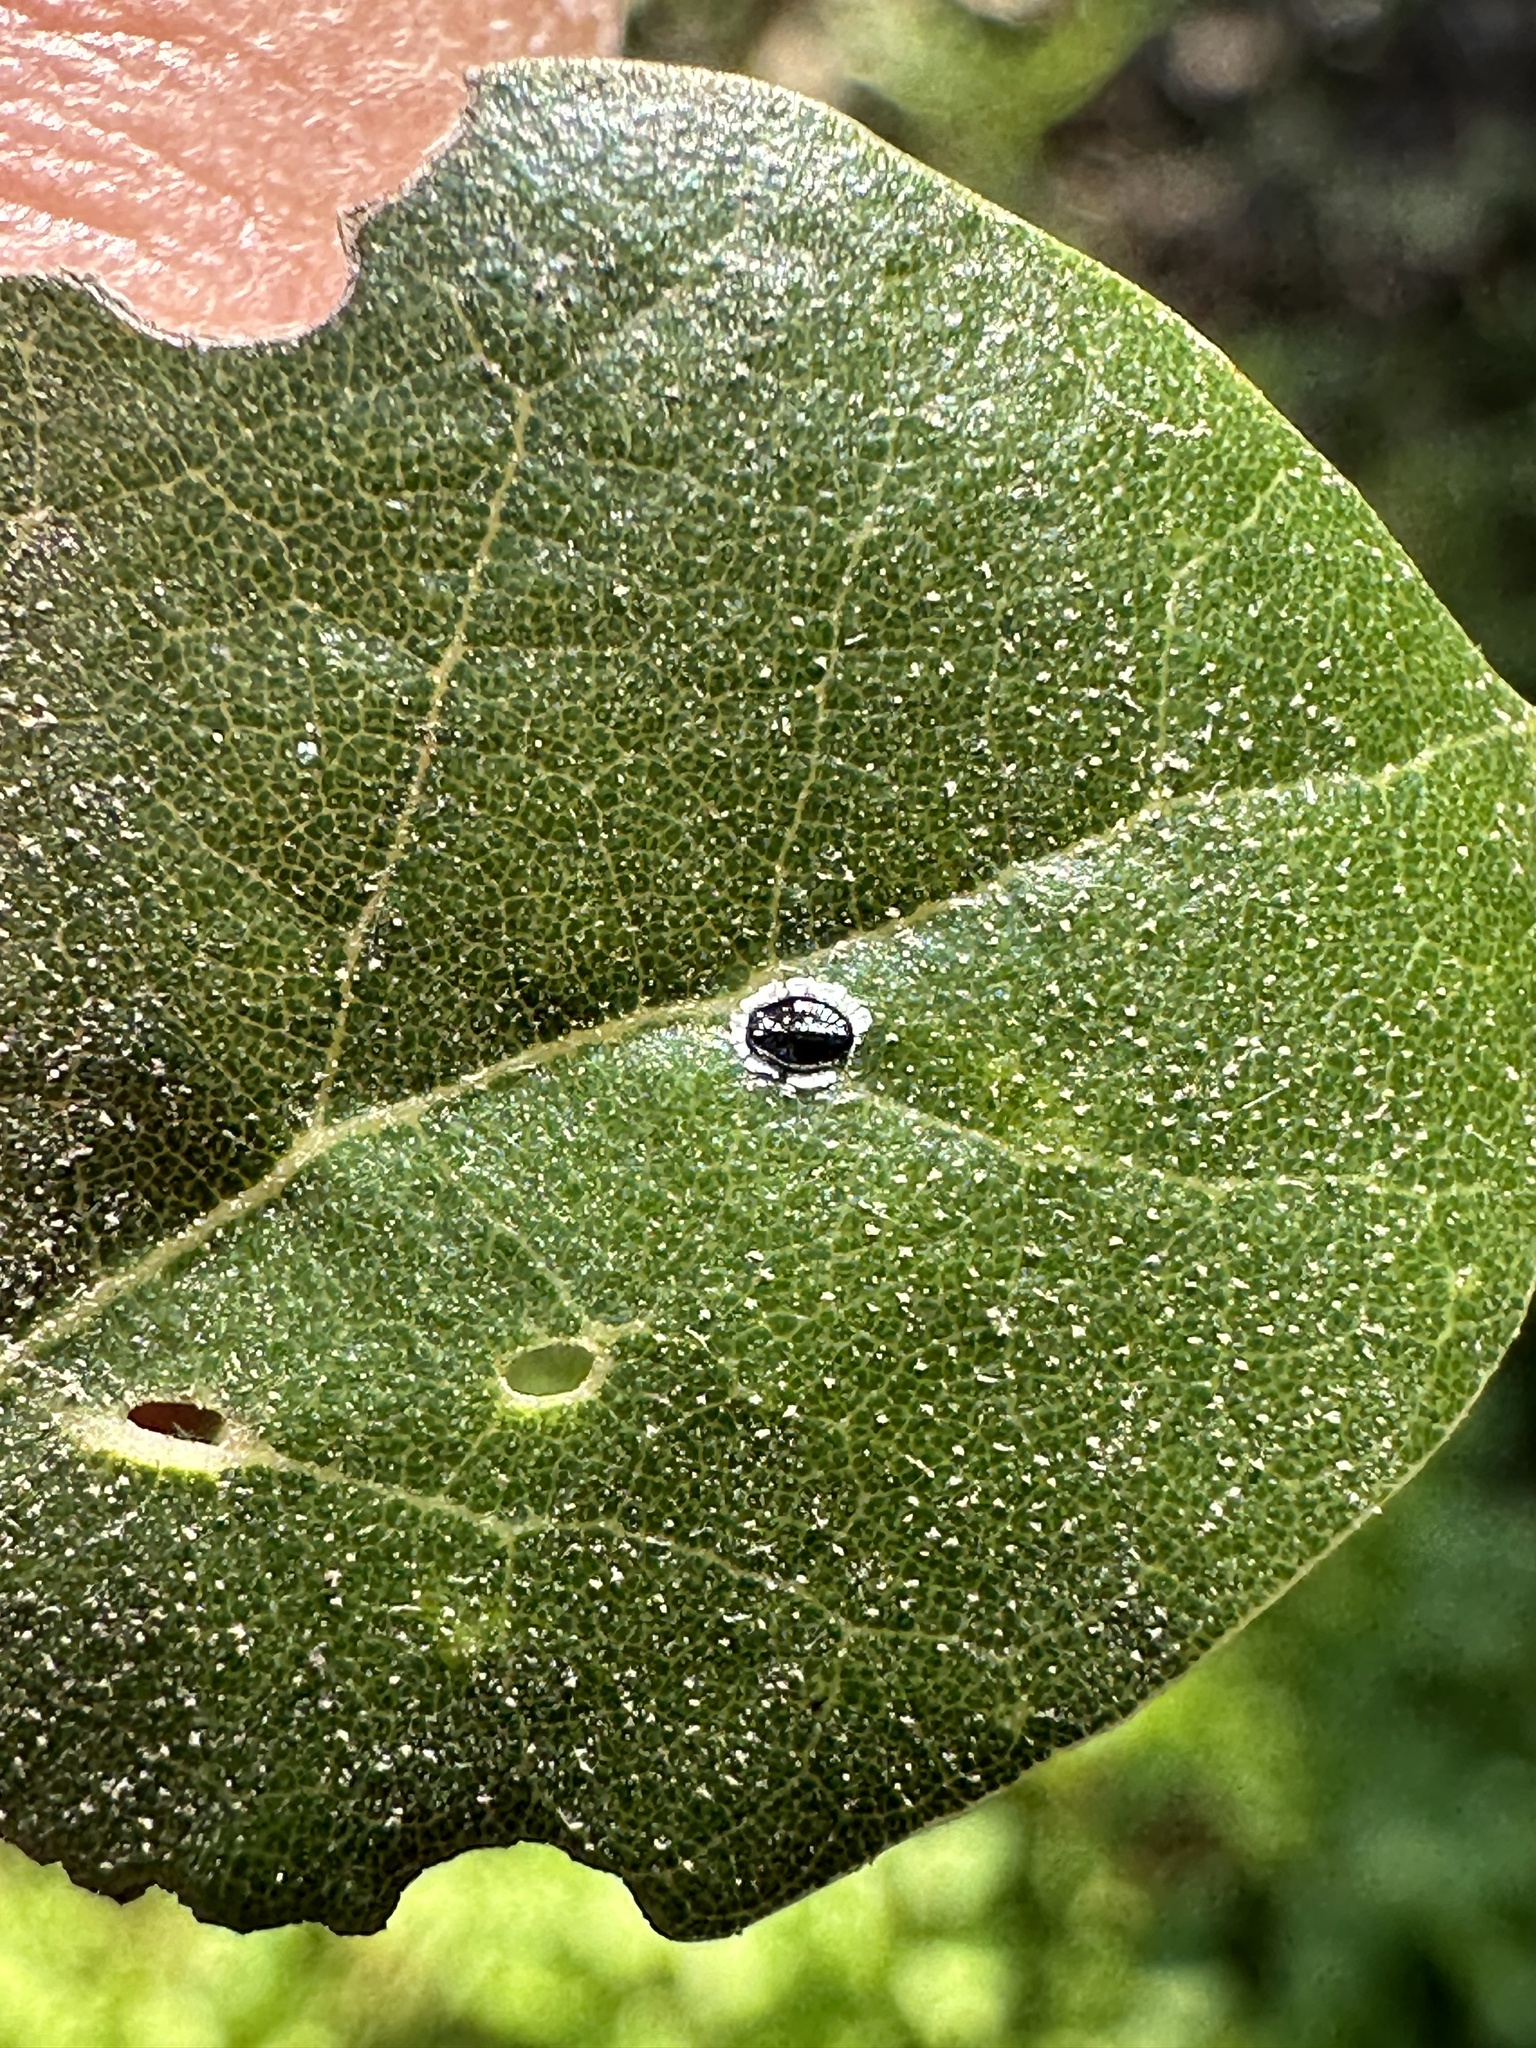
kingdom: Animalia
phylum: Arthropoda
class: Insecta
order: Hemiptera
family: Aleyrodidae
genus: Tetraleurodes
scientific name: Tetraleurodes perileuca
